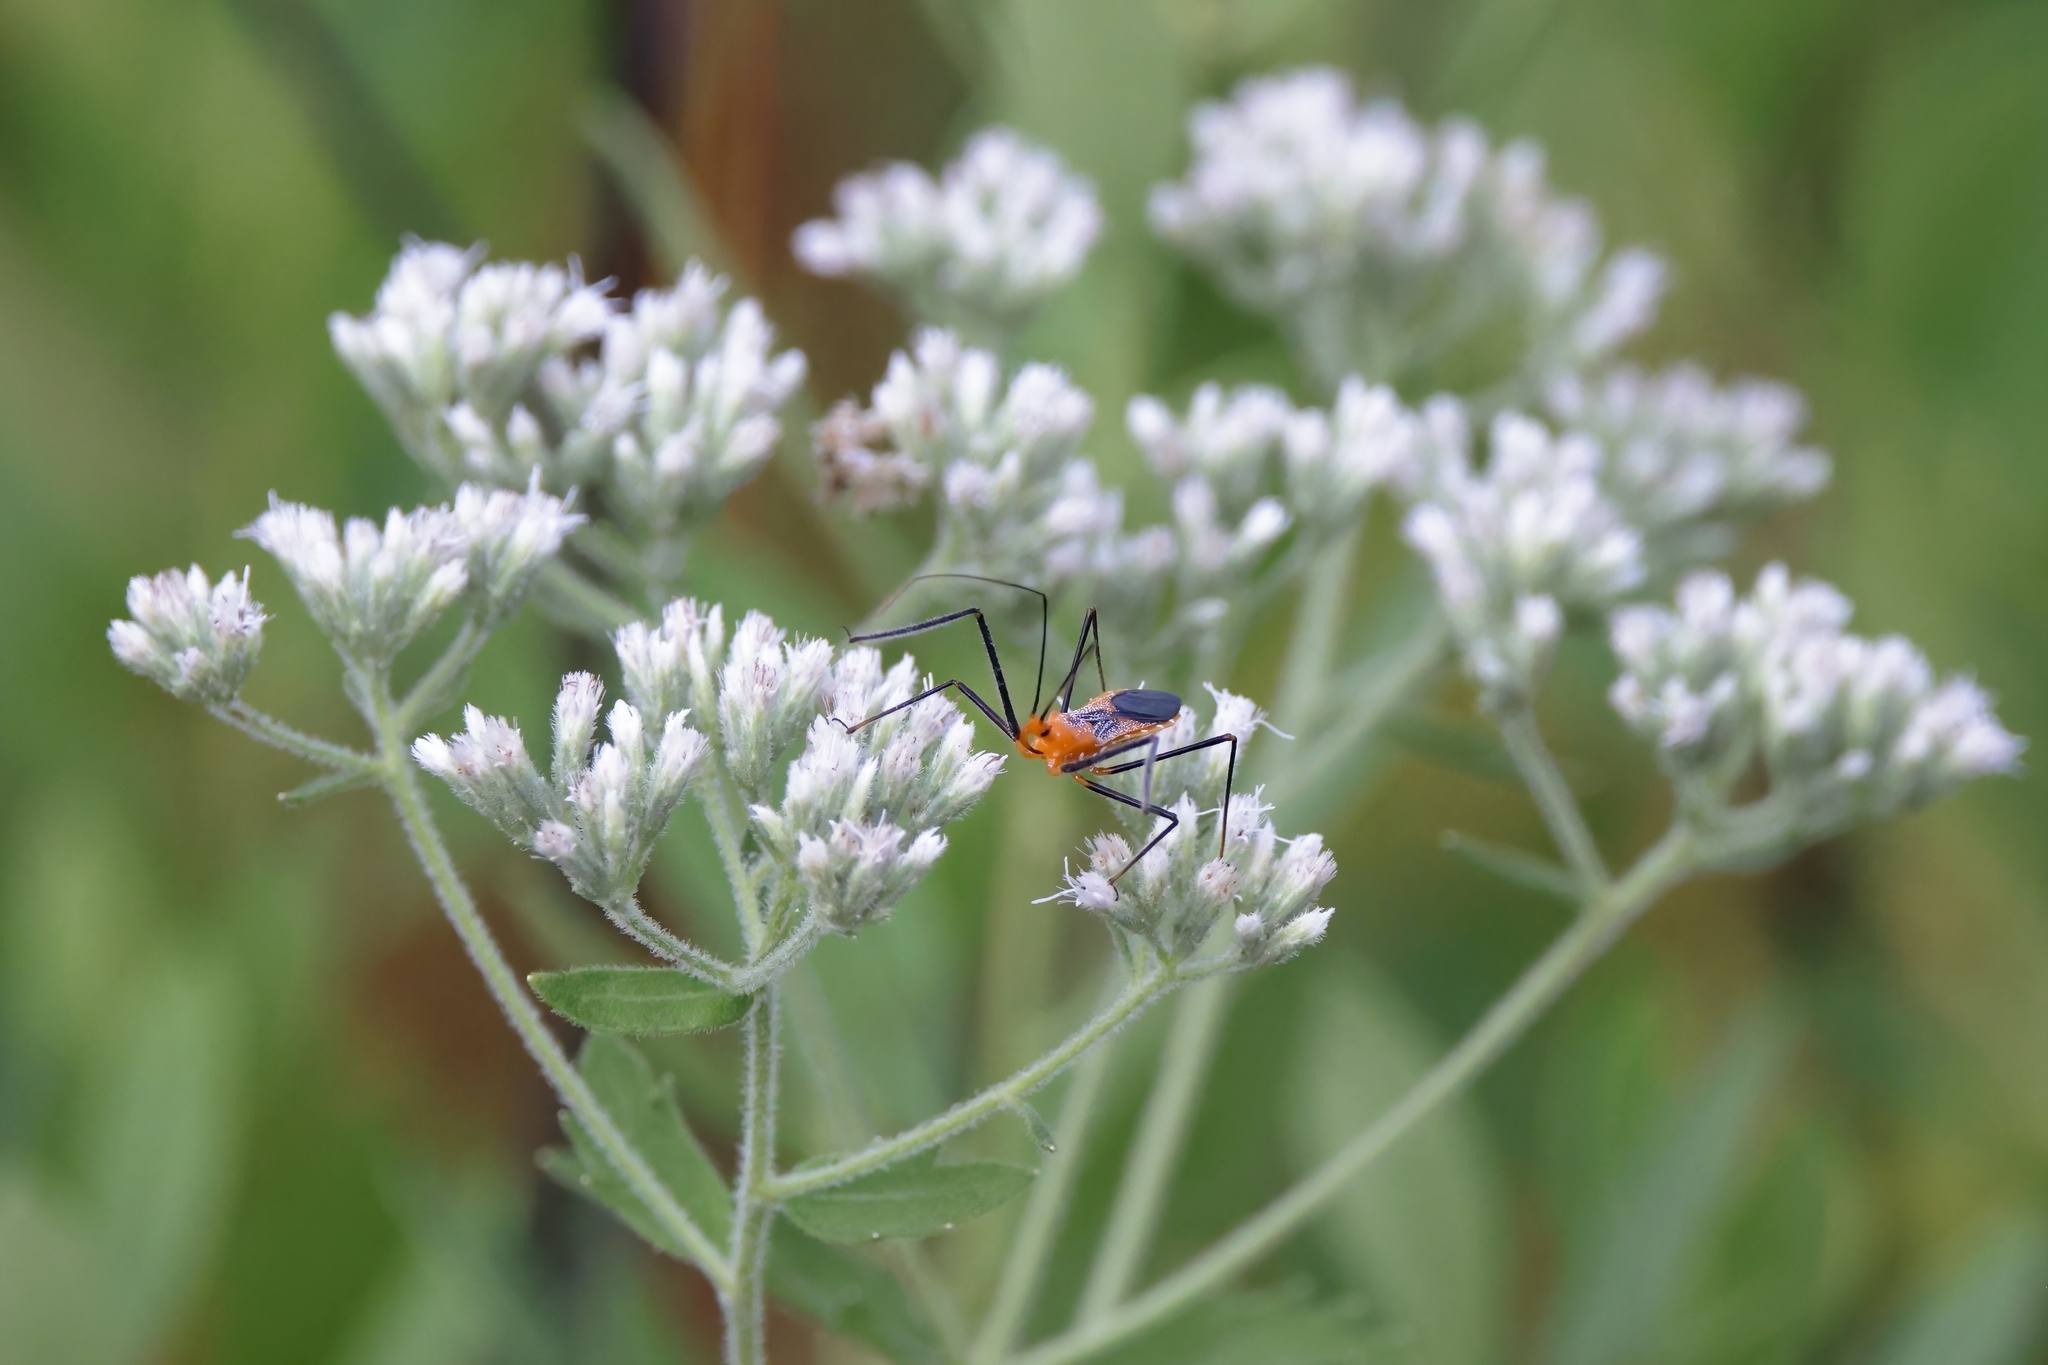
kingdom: Animalia
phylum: Arthropoda
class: Insecta
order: Hemiptera
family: Reduviidae
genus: Zelus
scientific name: Zelus longipes
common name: Milkweed assassin bug
